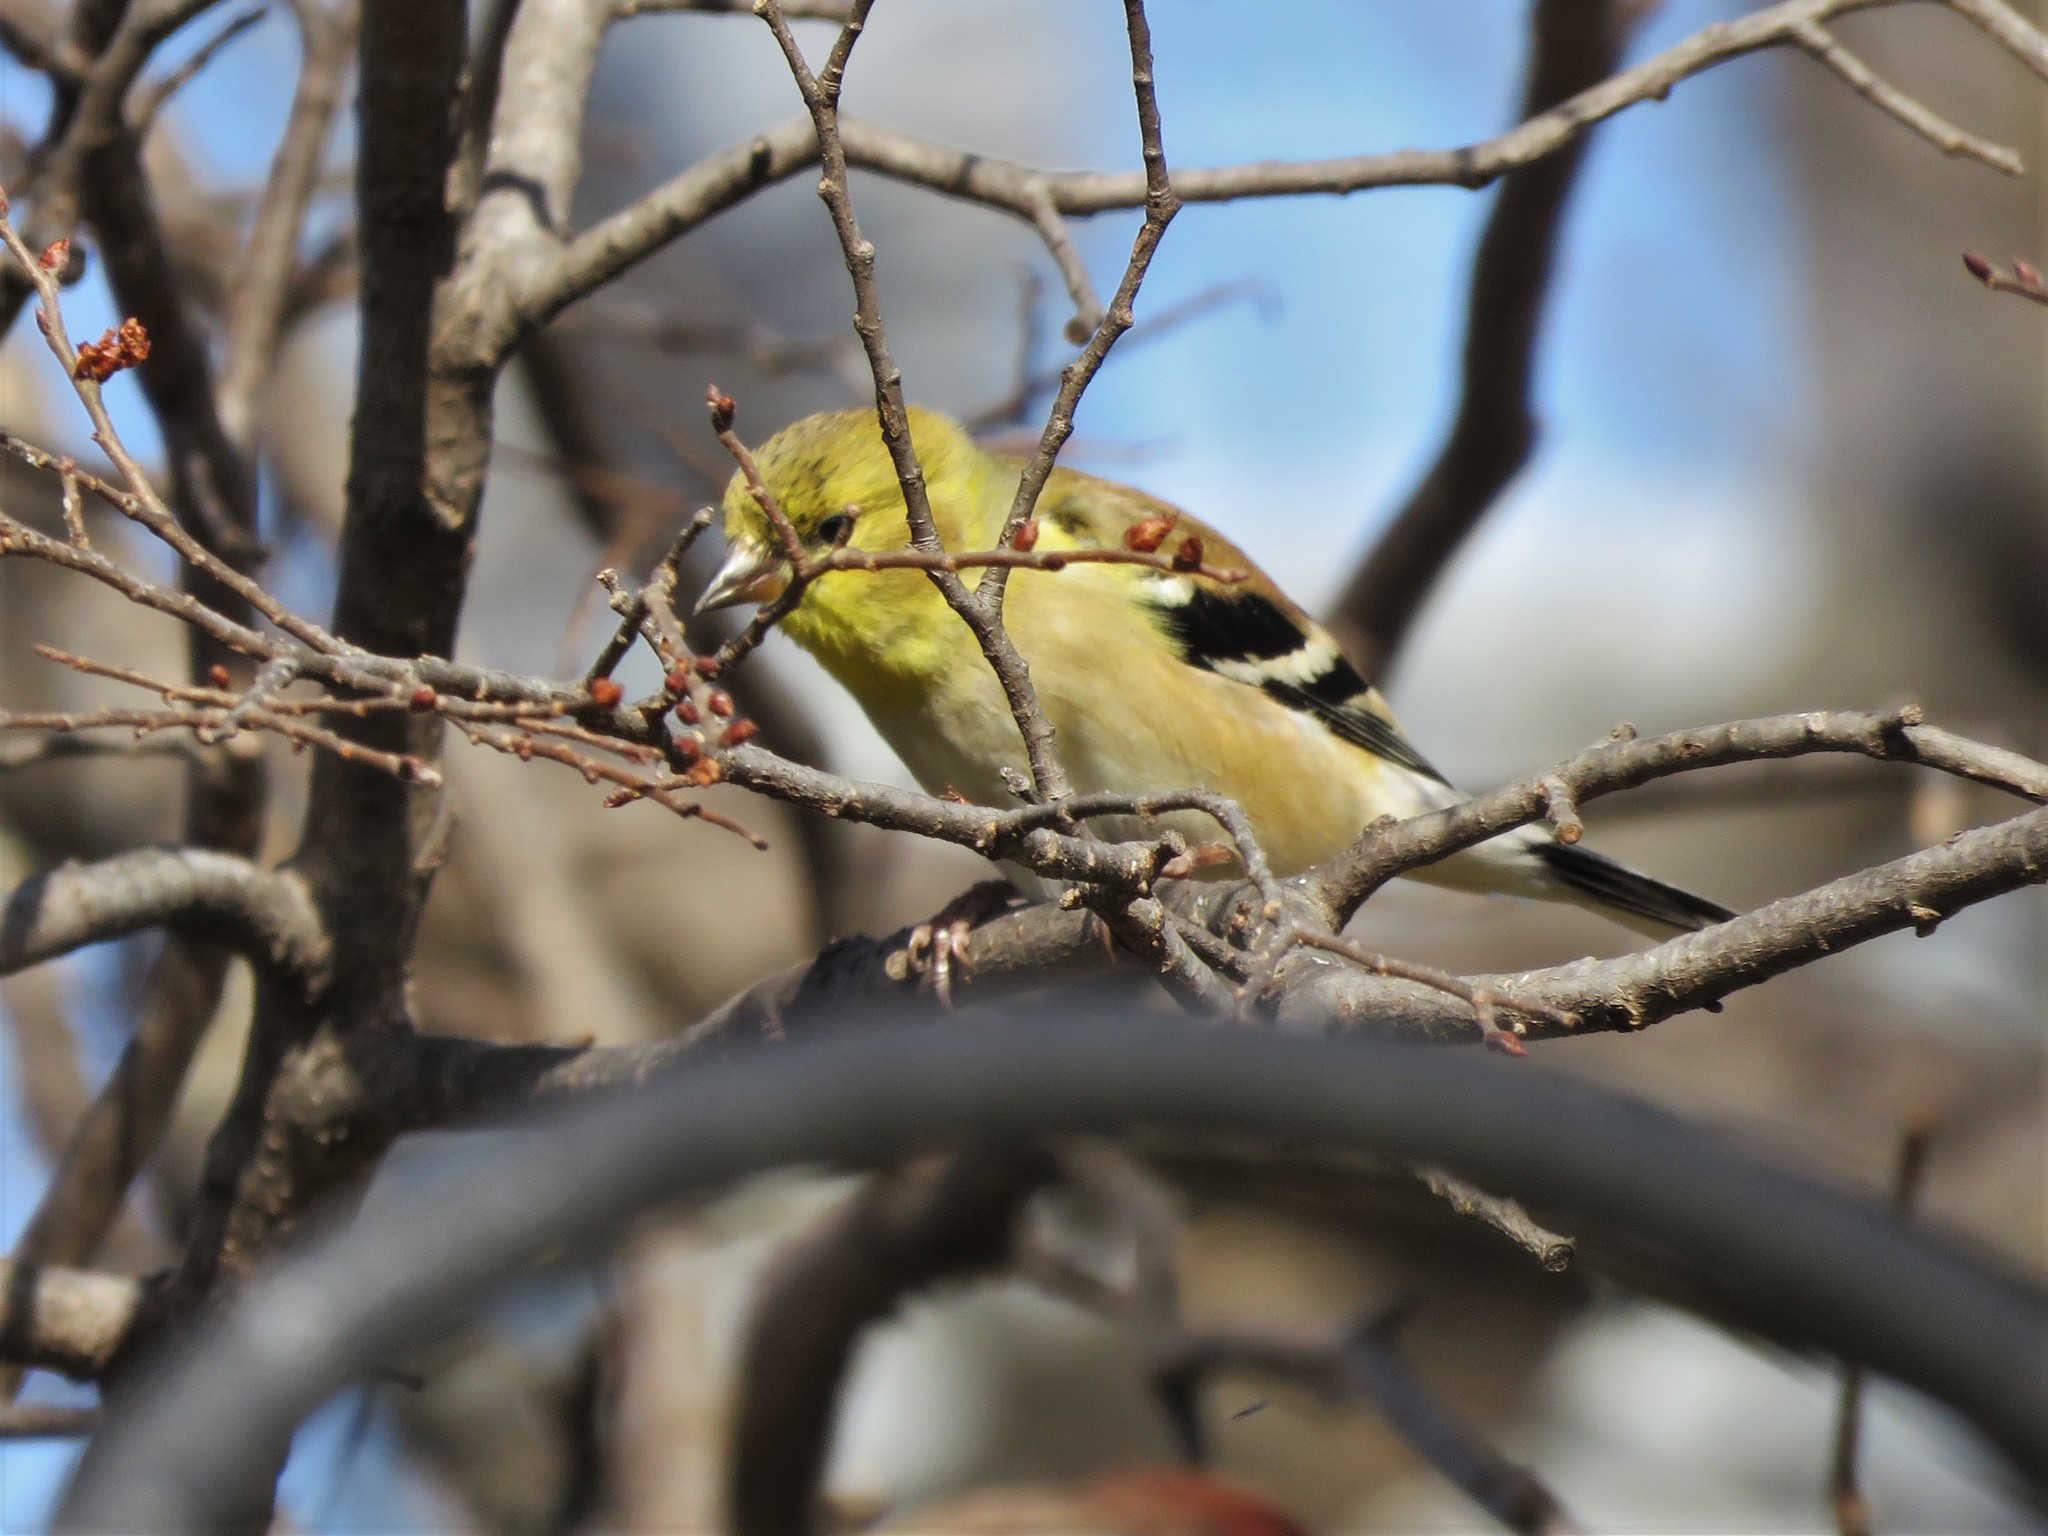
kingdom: Animalia
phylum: Chordata
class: Aves
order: Passeriformes
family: Fringillidae
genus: Spinus
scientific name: Spinus tristis
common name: American goldfinch
